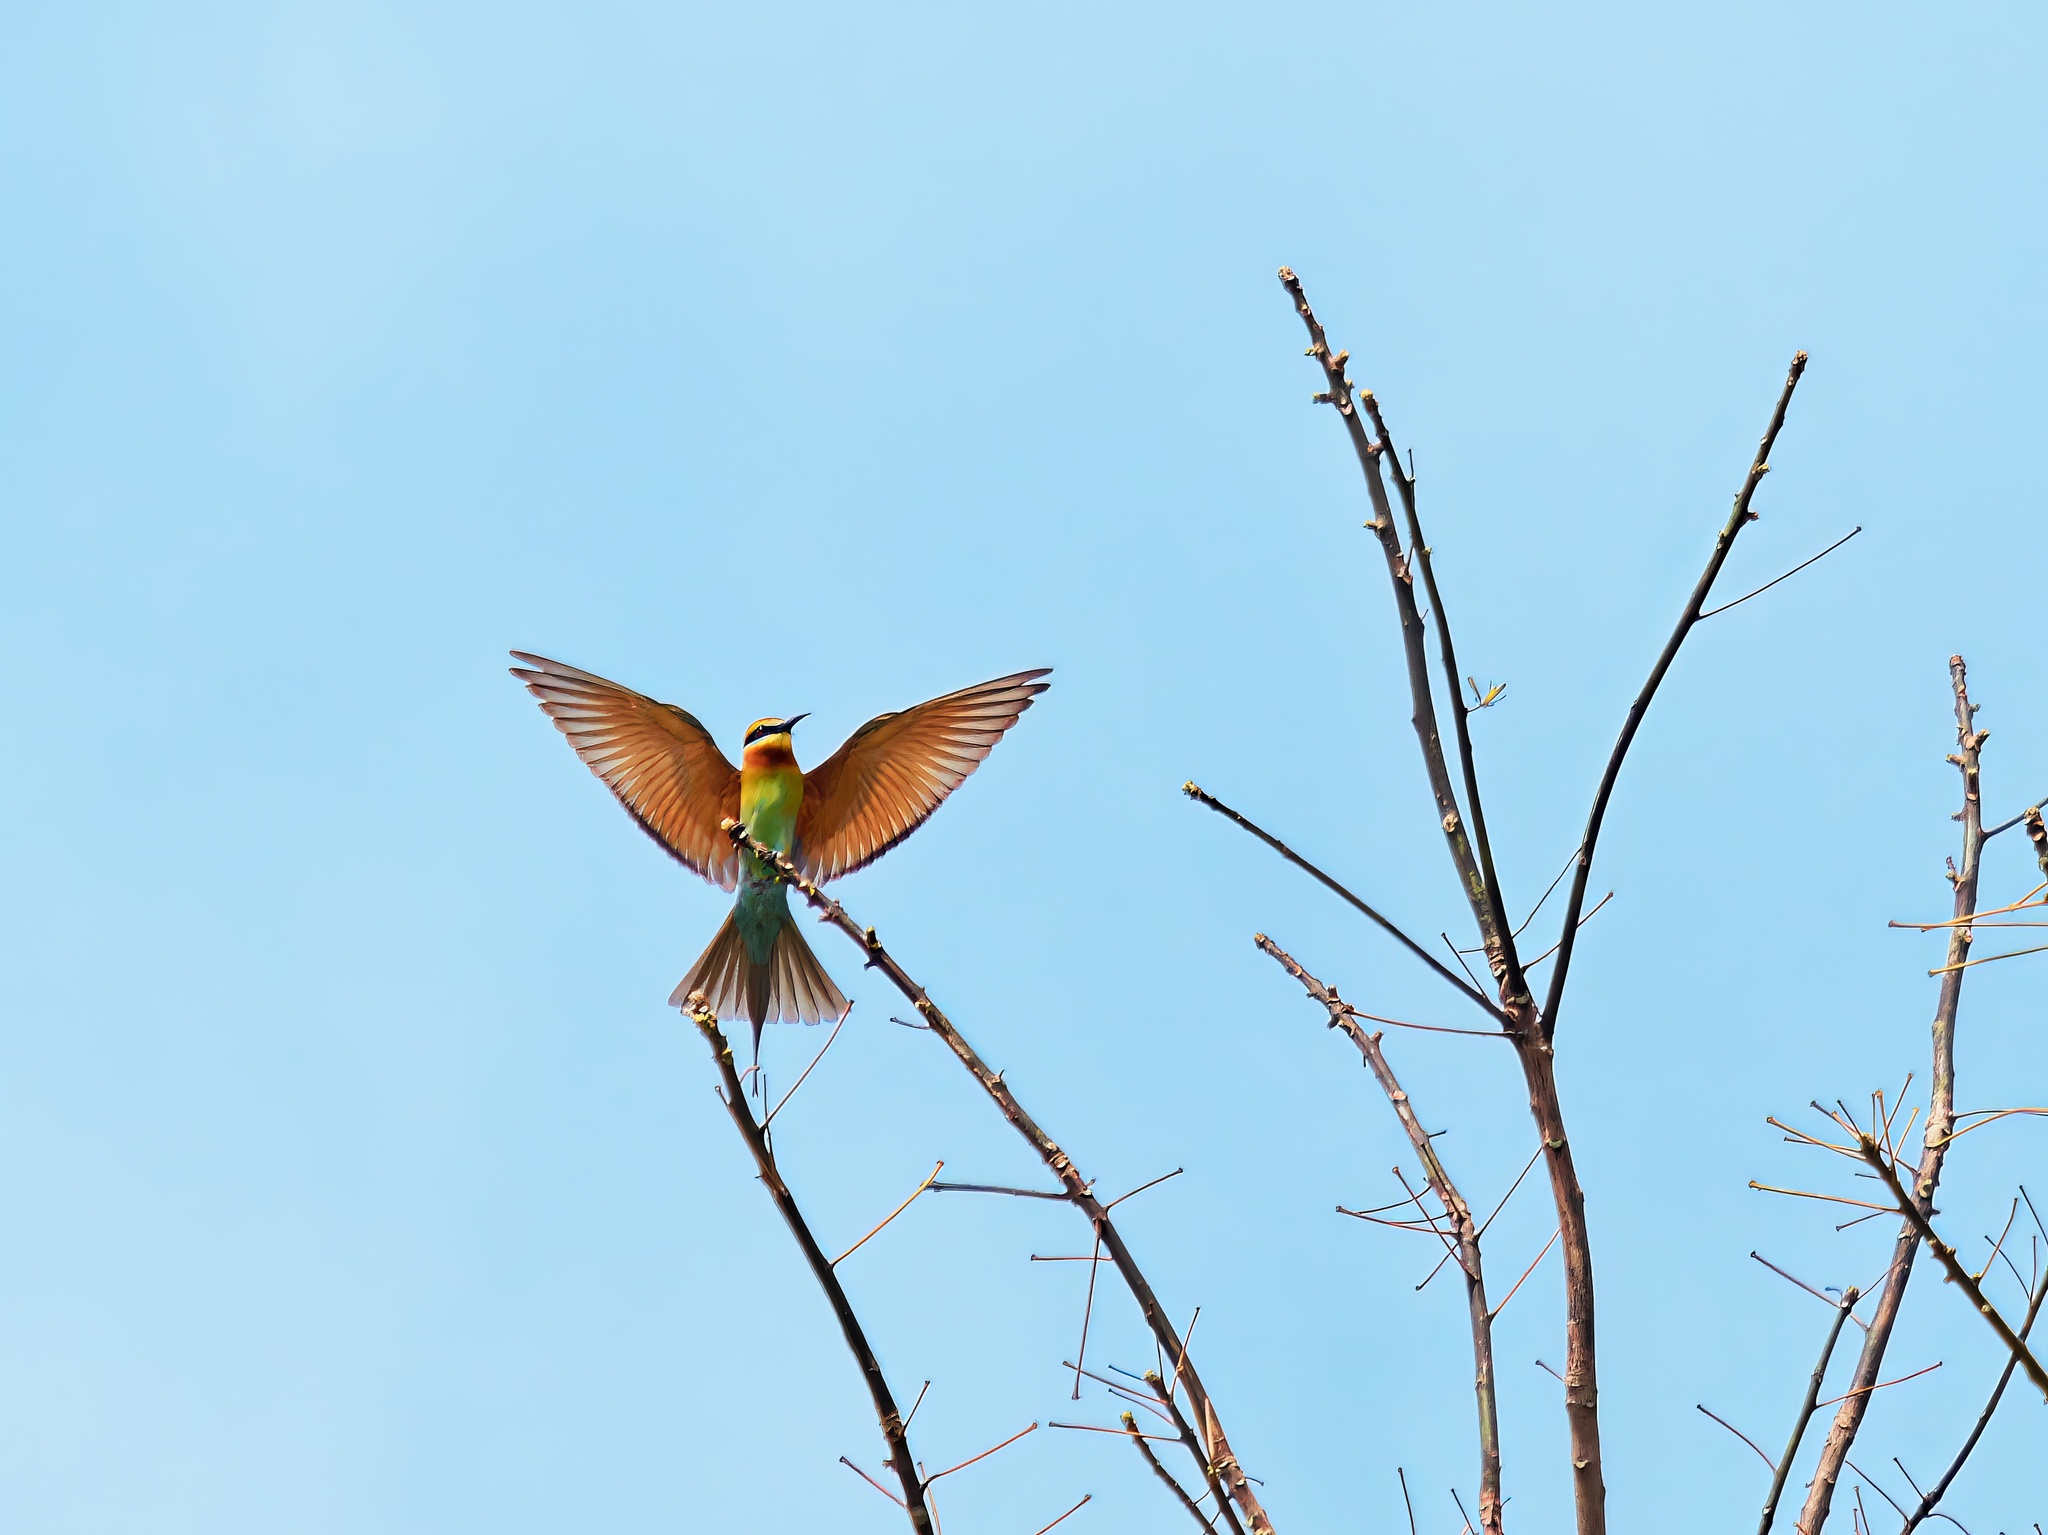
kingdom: Animalia
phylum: Chordata
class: Aves
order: Coraciiformes
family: Meropidae
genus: Merops
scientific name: Merops philippinus
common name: Blue-tailed bee-eater
